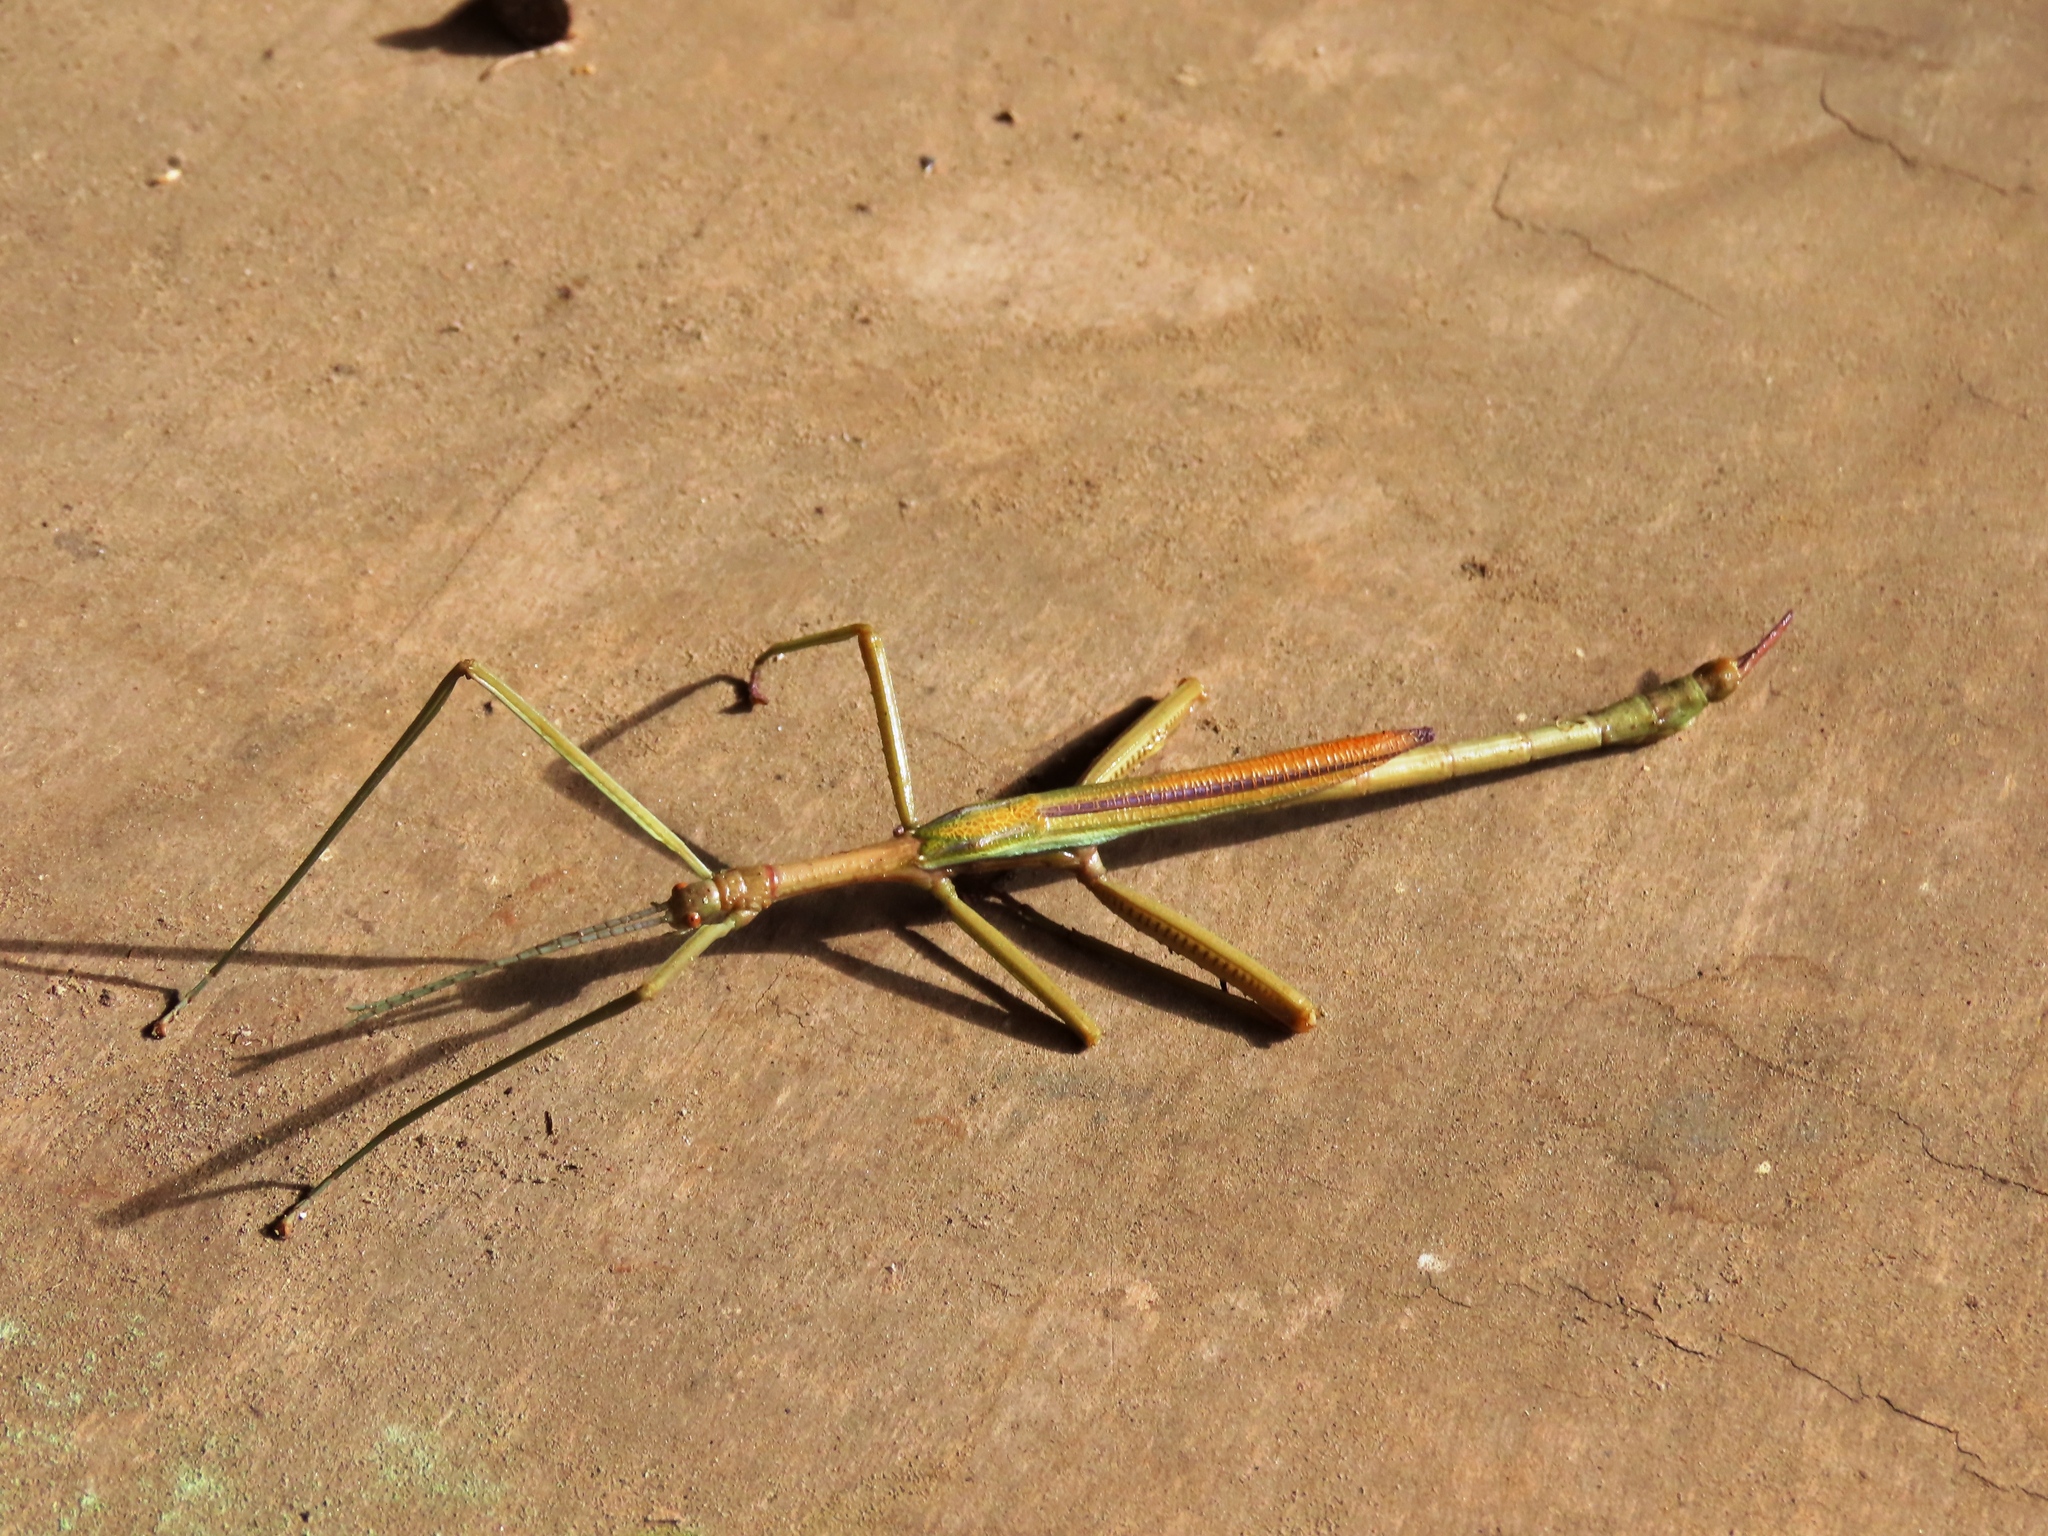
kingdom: Animalia
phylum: Arthropoda
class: Insecta
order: Phasmida
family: Phasmatidae
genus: Didymuria
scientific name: Didymuria violescens
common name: Spur-legged stick-insect
